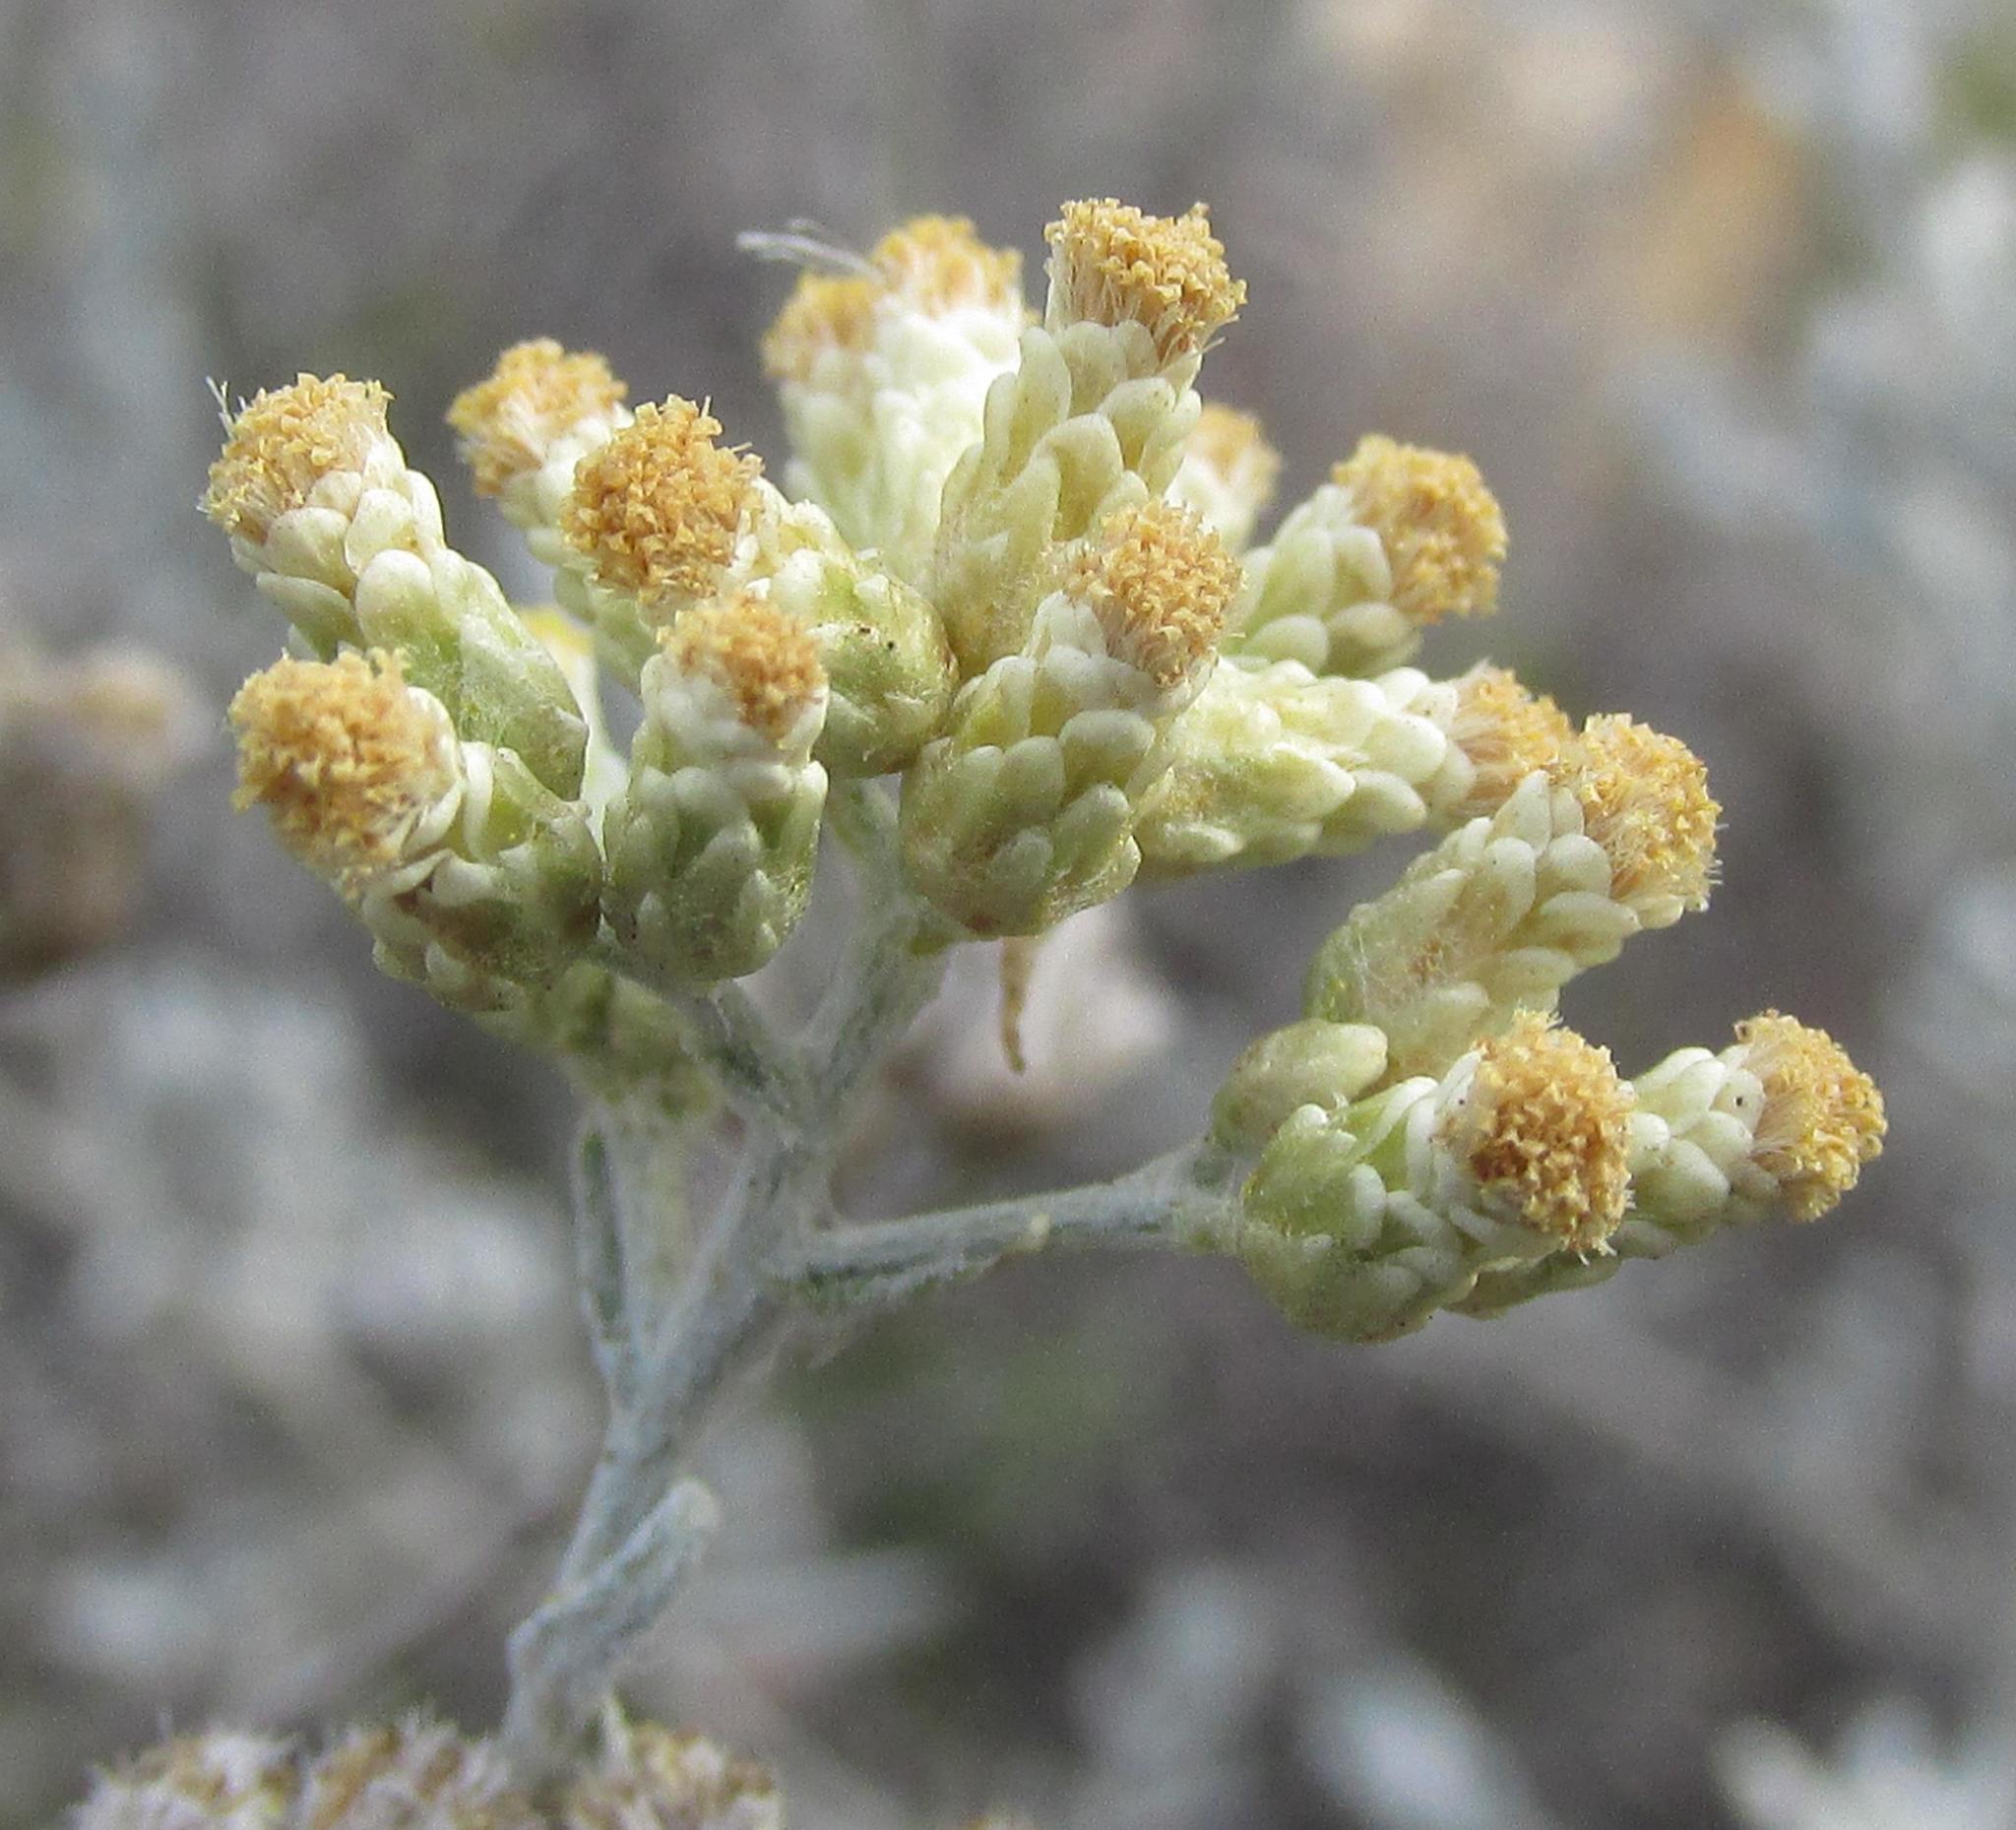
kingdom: Plantae
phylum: Tracheophyta
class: Magnoliopsida
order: Asterales
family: Asteraceae
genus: Helichrysum
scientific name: Helichrysum rosum
